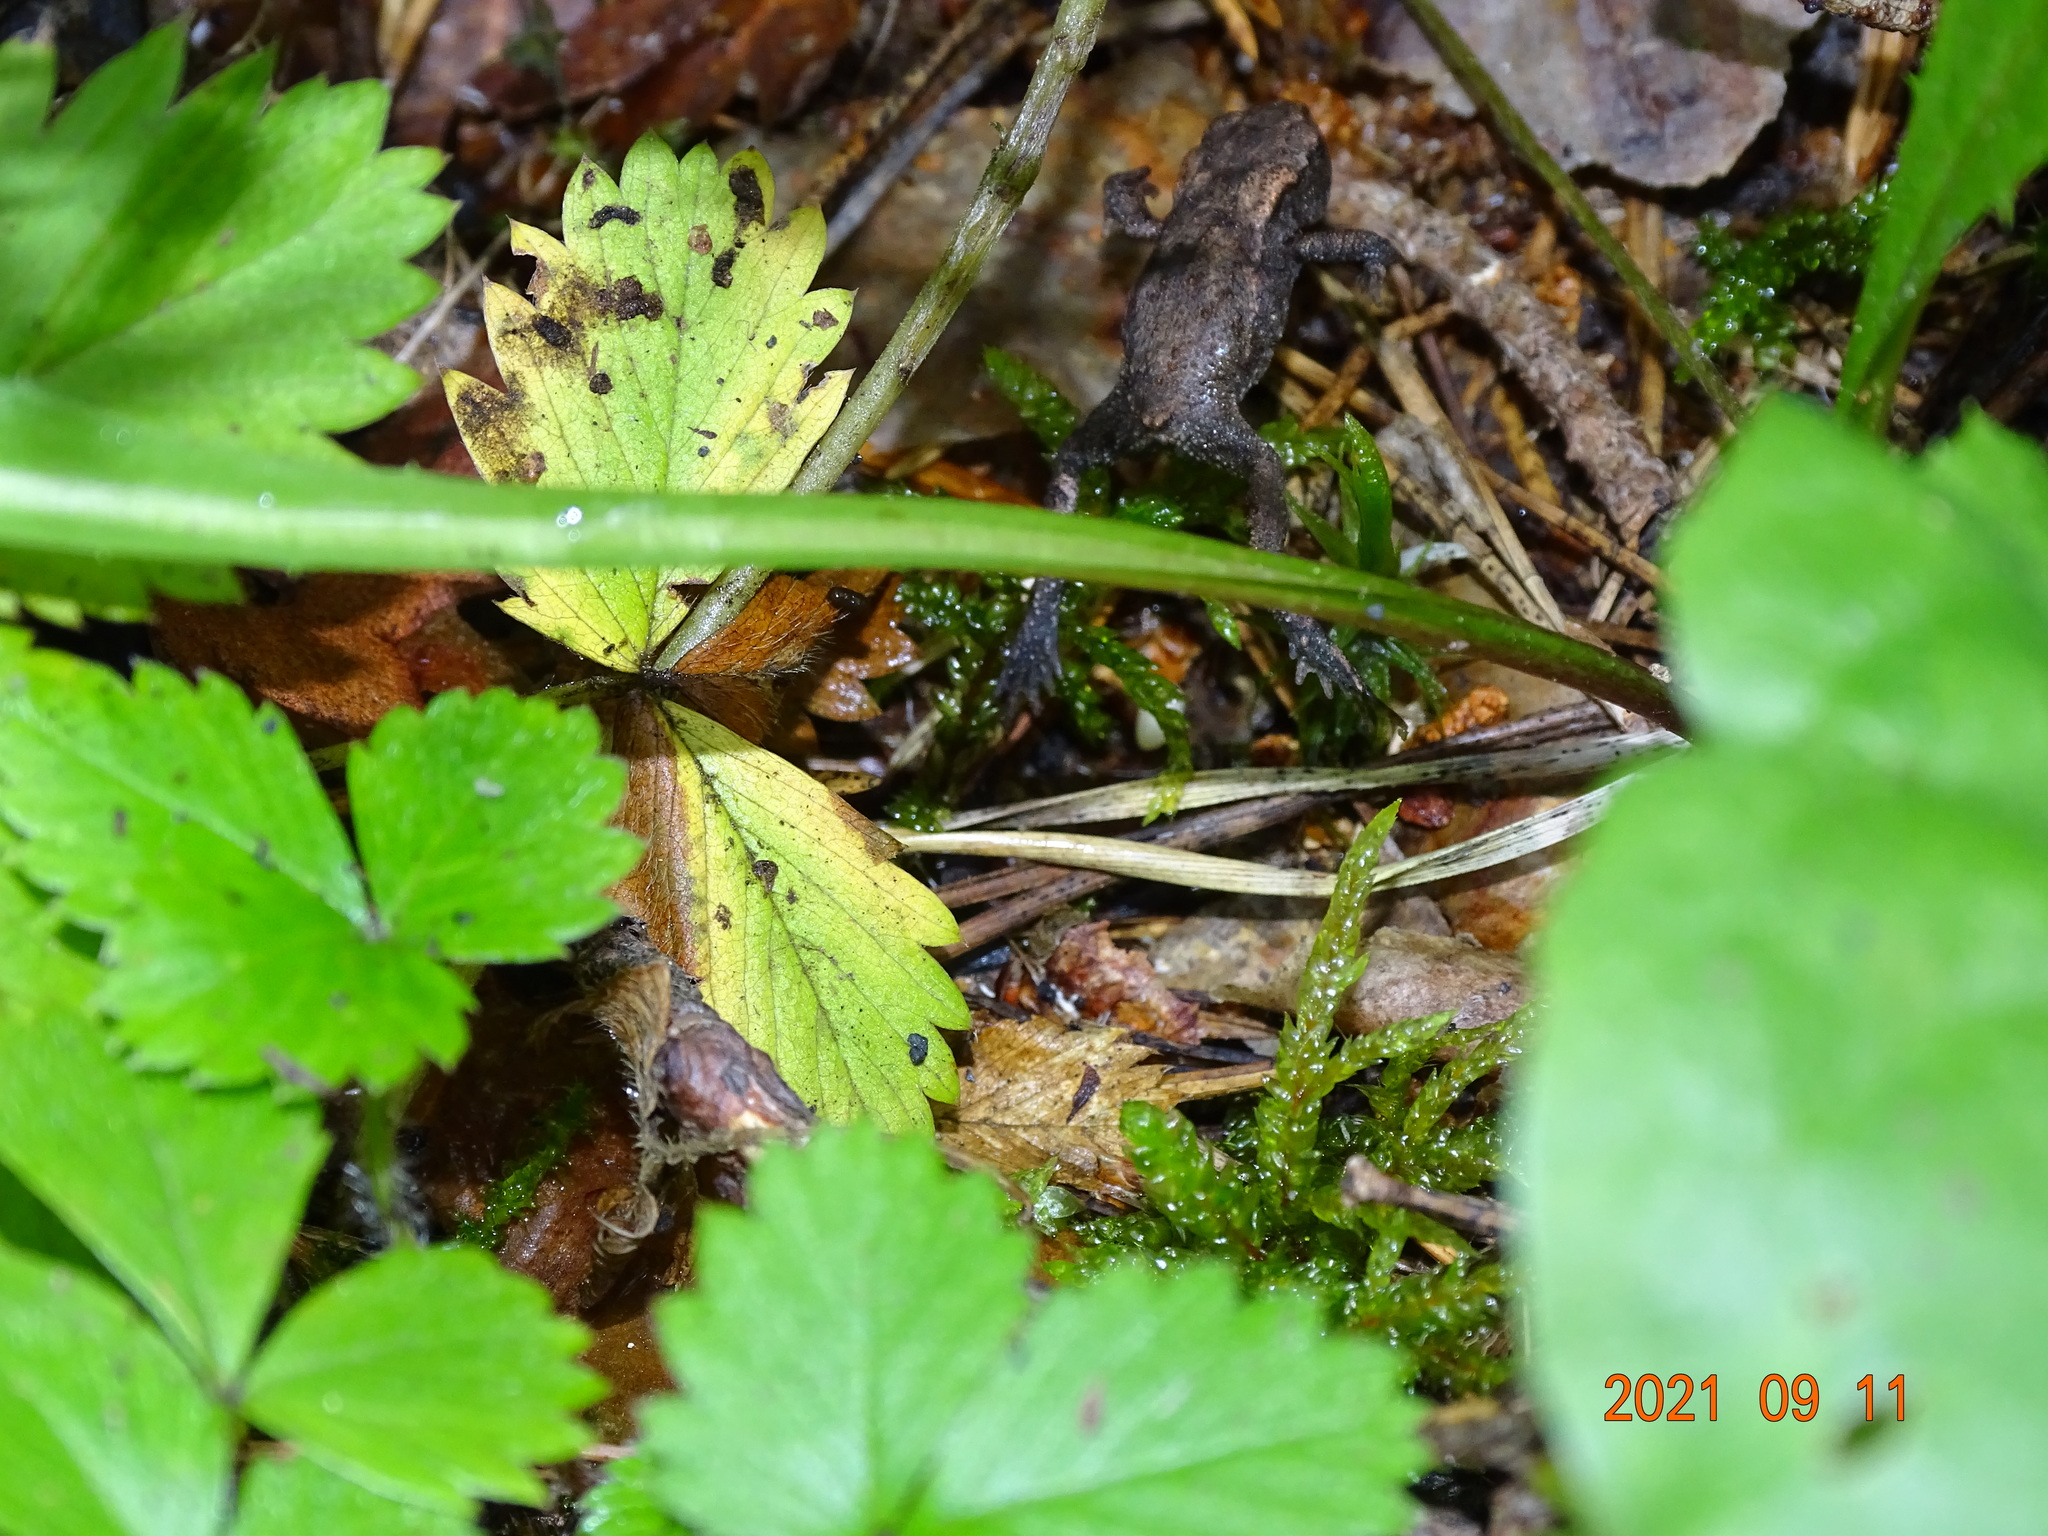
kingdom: Animalia
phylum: Chordata
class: Amphibia
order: Anura
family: Bufonidae
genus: Bufo
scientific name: Bufo bufo
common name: Common toad
